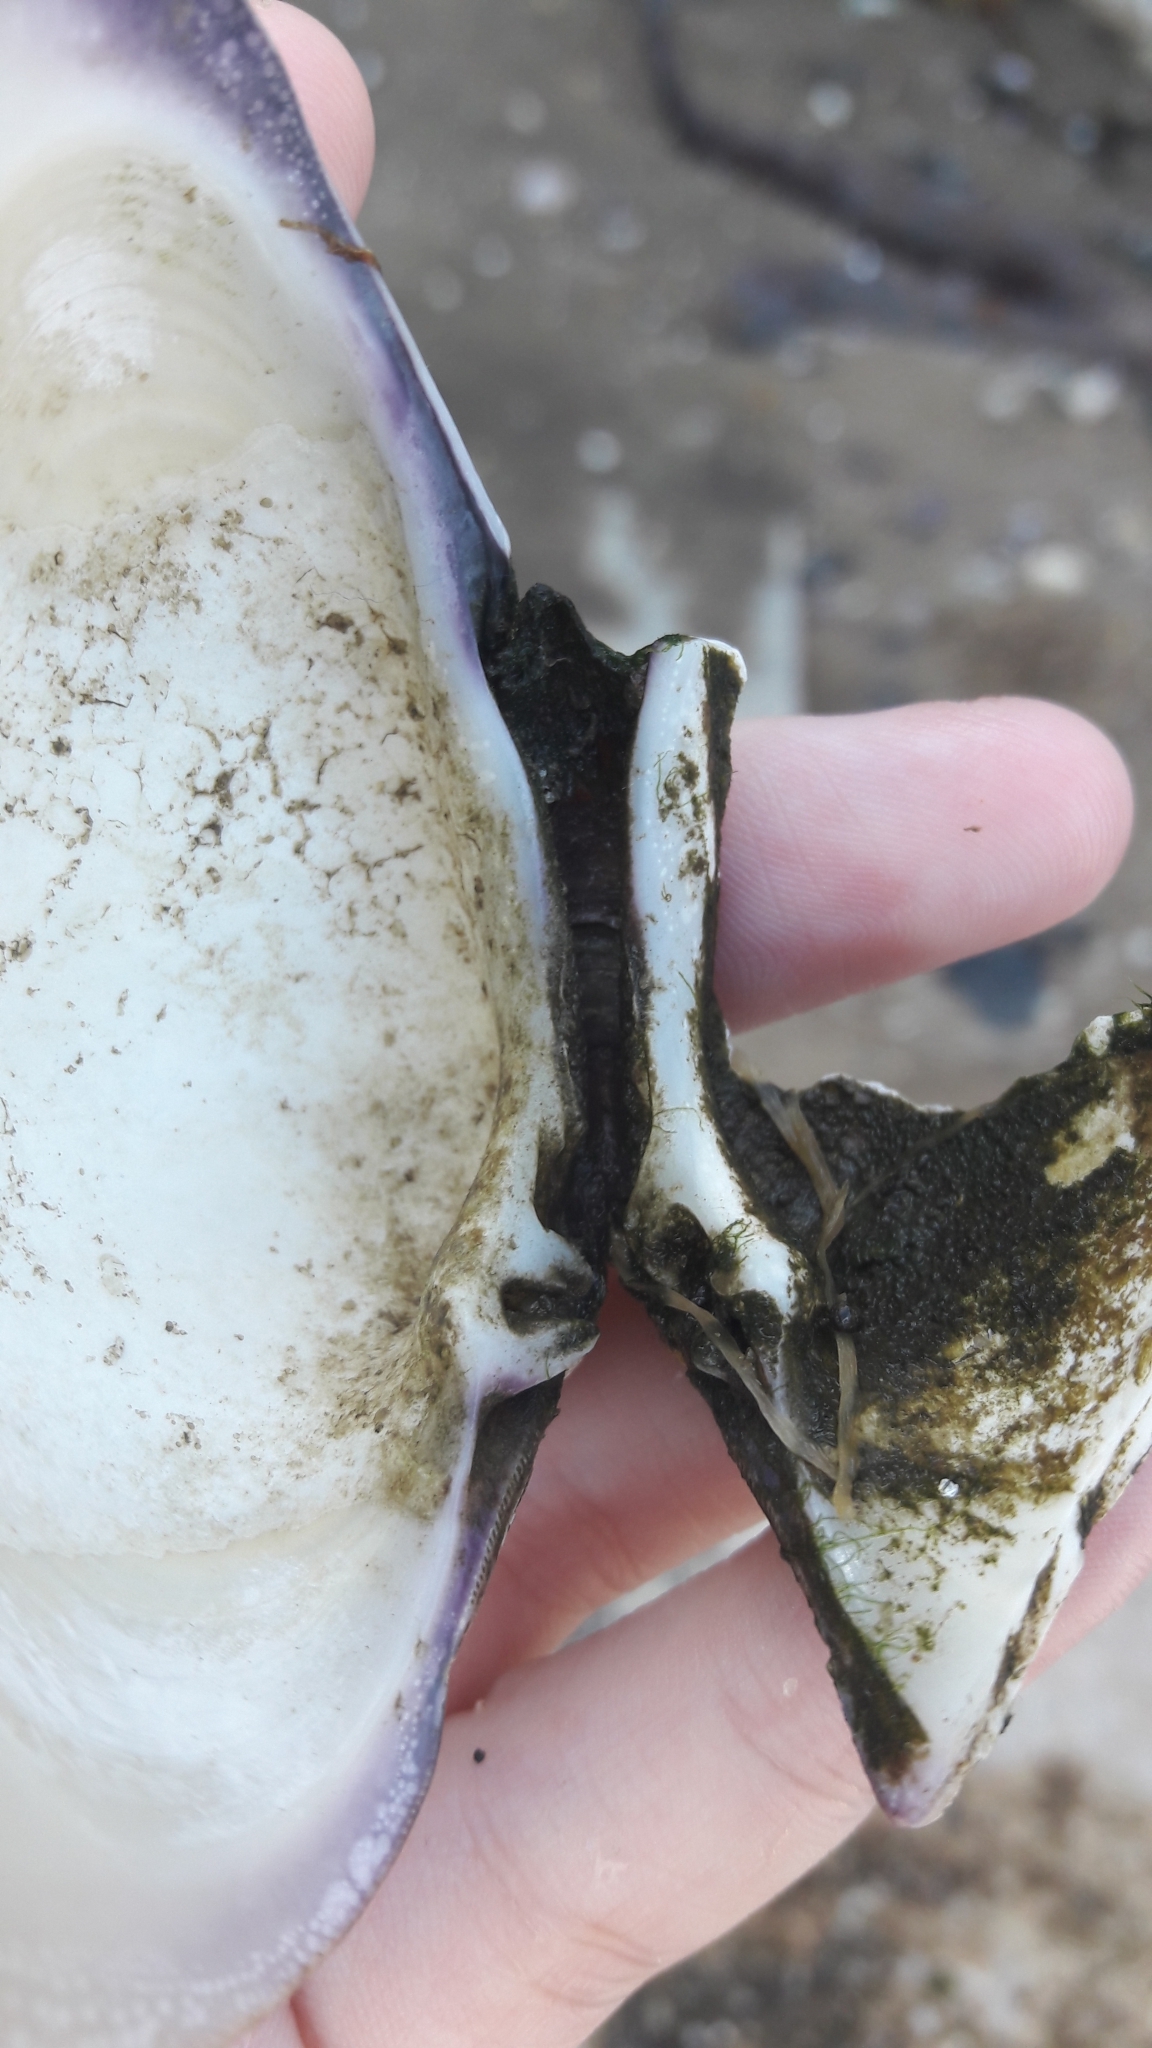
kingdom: Animalia
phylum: Mollusca
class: Bivalvia
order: Venerida
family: Veneridae
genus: Mercenaria
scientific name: Mercenaria mercenaria
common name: American hard-shelled clam
